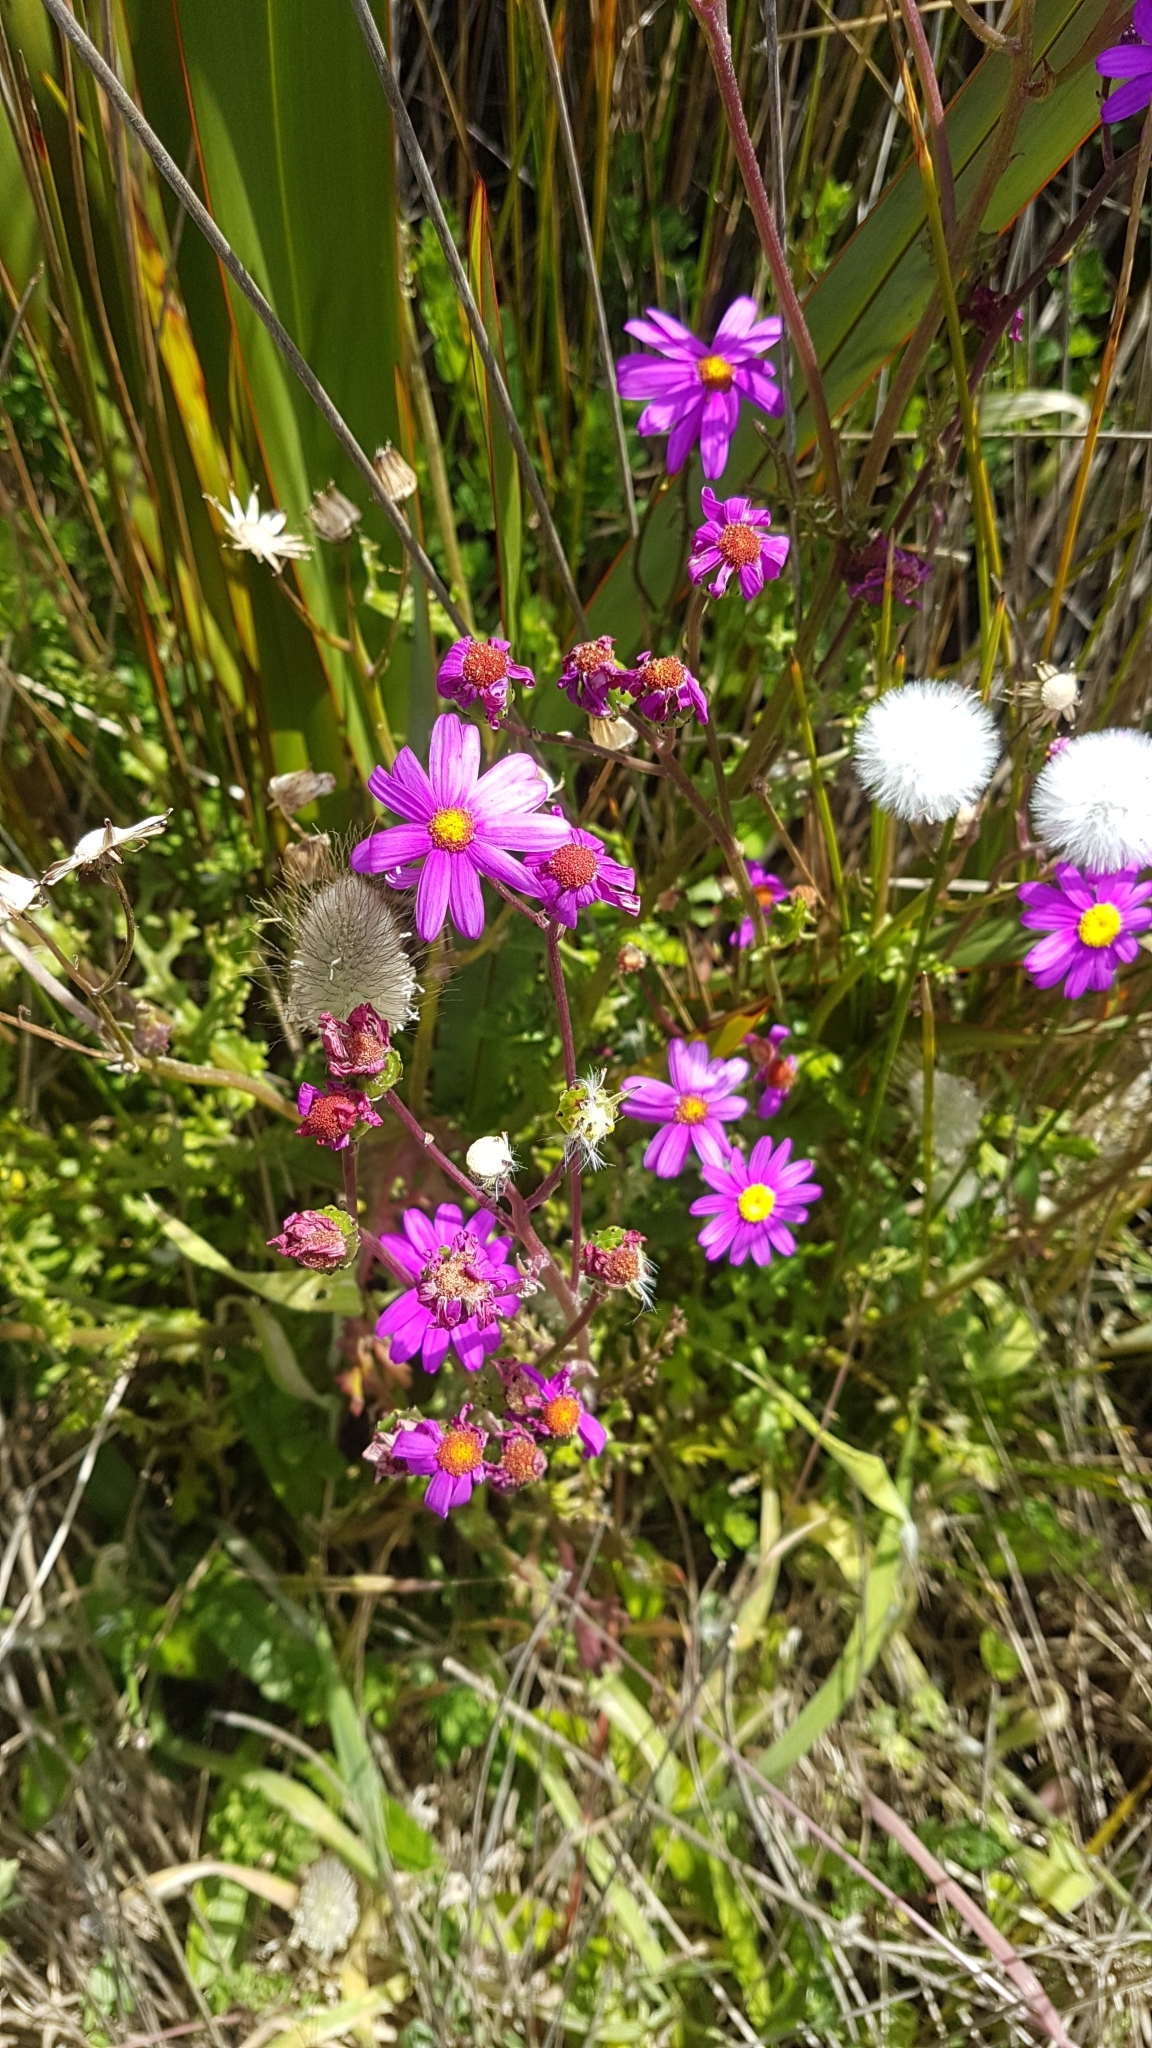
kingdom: Plantae
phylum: Tracheophyta
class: Magnoliopsida
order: Asterales
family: Asteraceae
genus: Senecio
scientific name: Senecio elegans
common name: Purple groundsel
